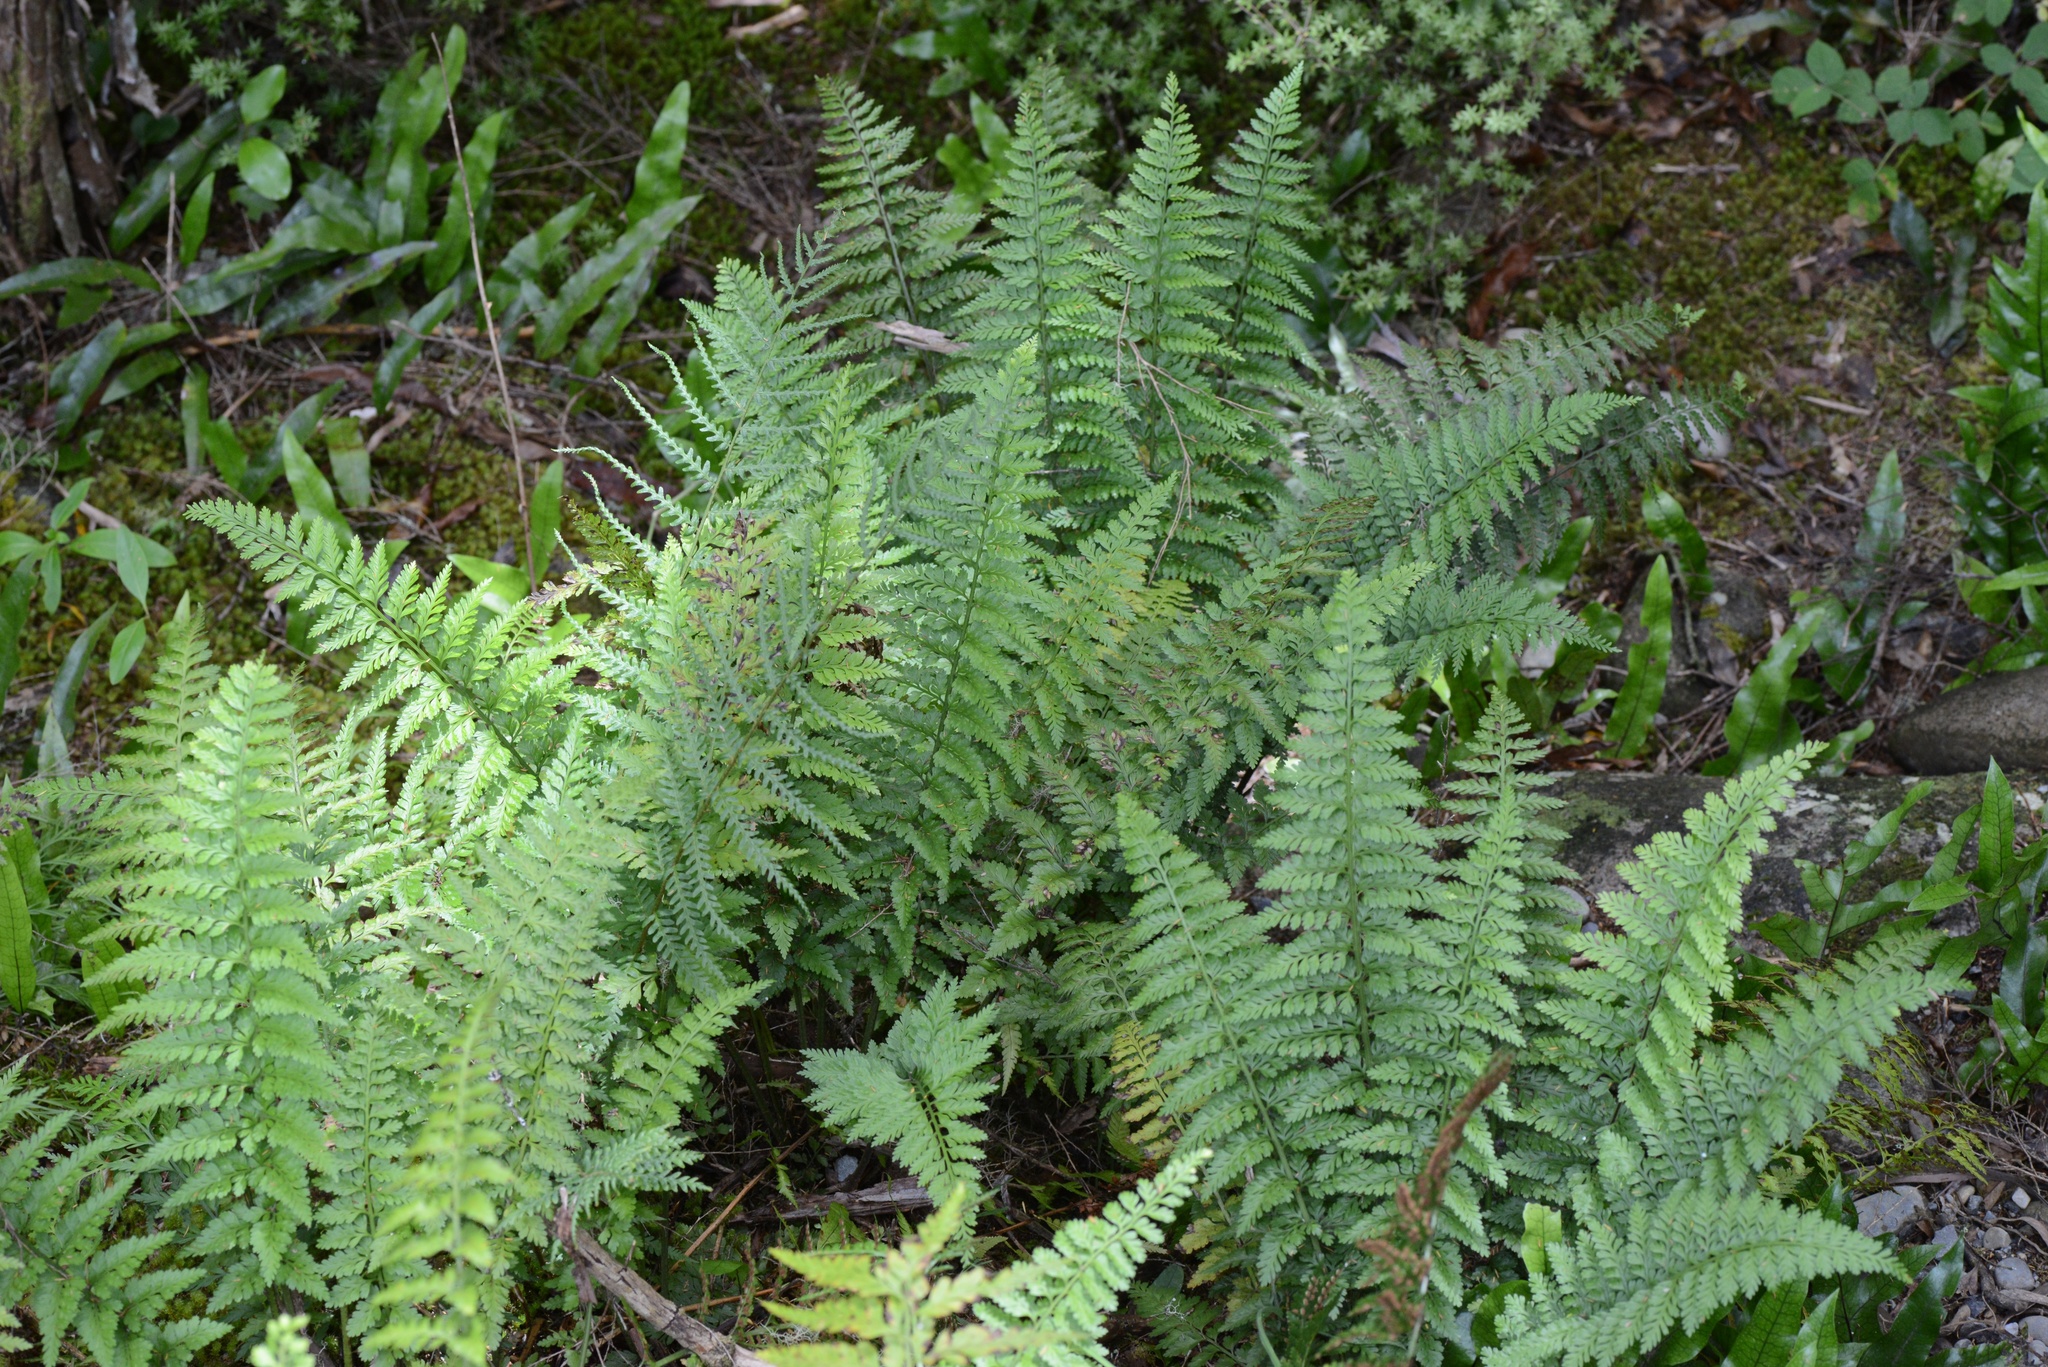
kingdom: Plantae
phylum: Tracheophyta
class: Polypodiopsida
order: Polypodiales
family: Aspleniaceae
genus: Asplenium
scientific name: Asplenium
